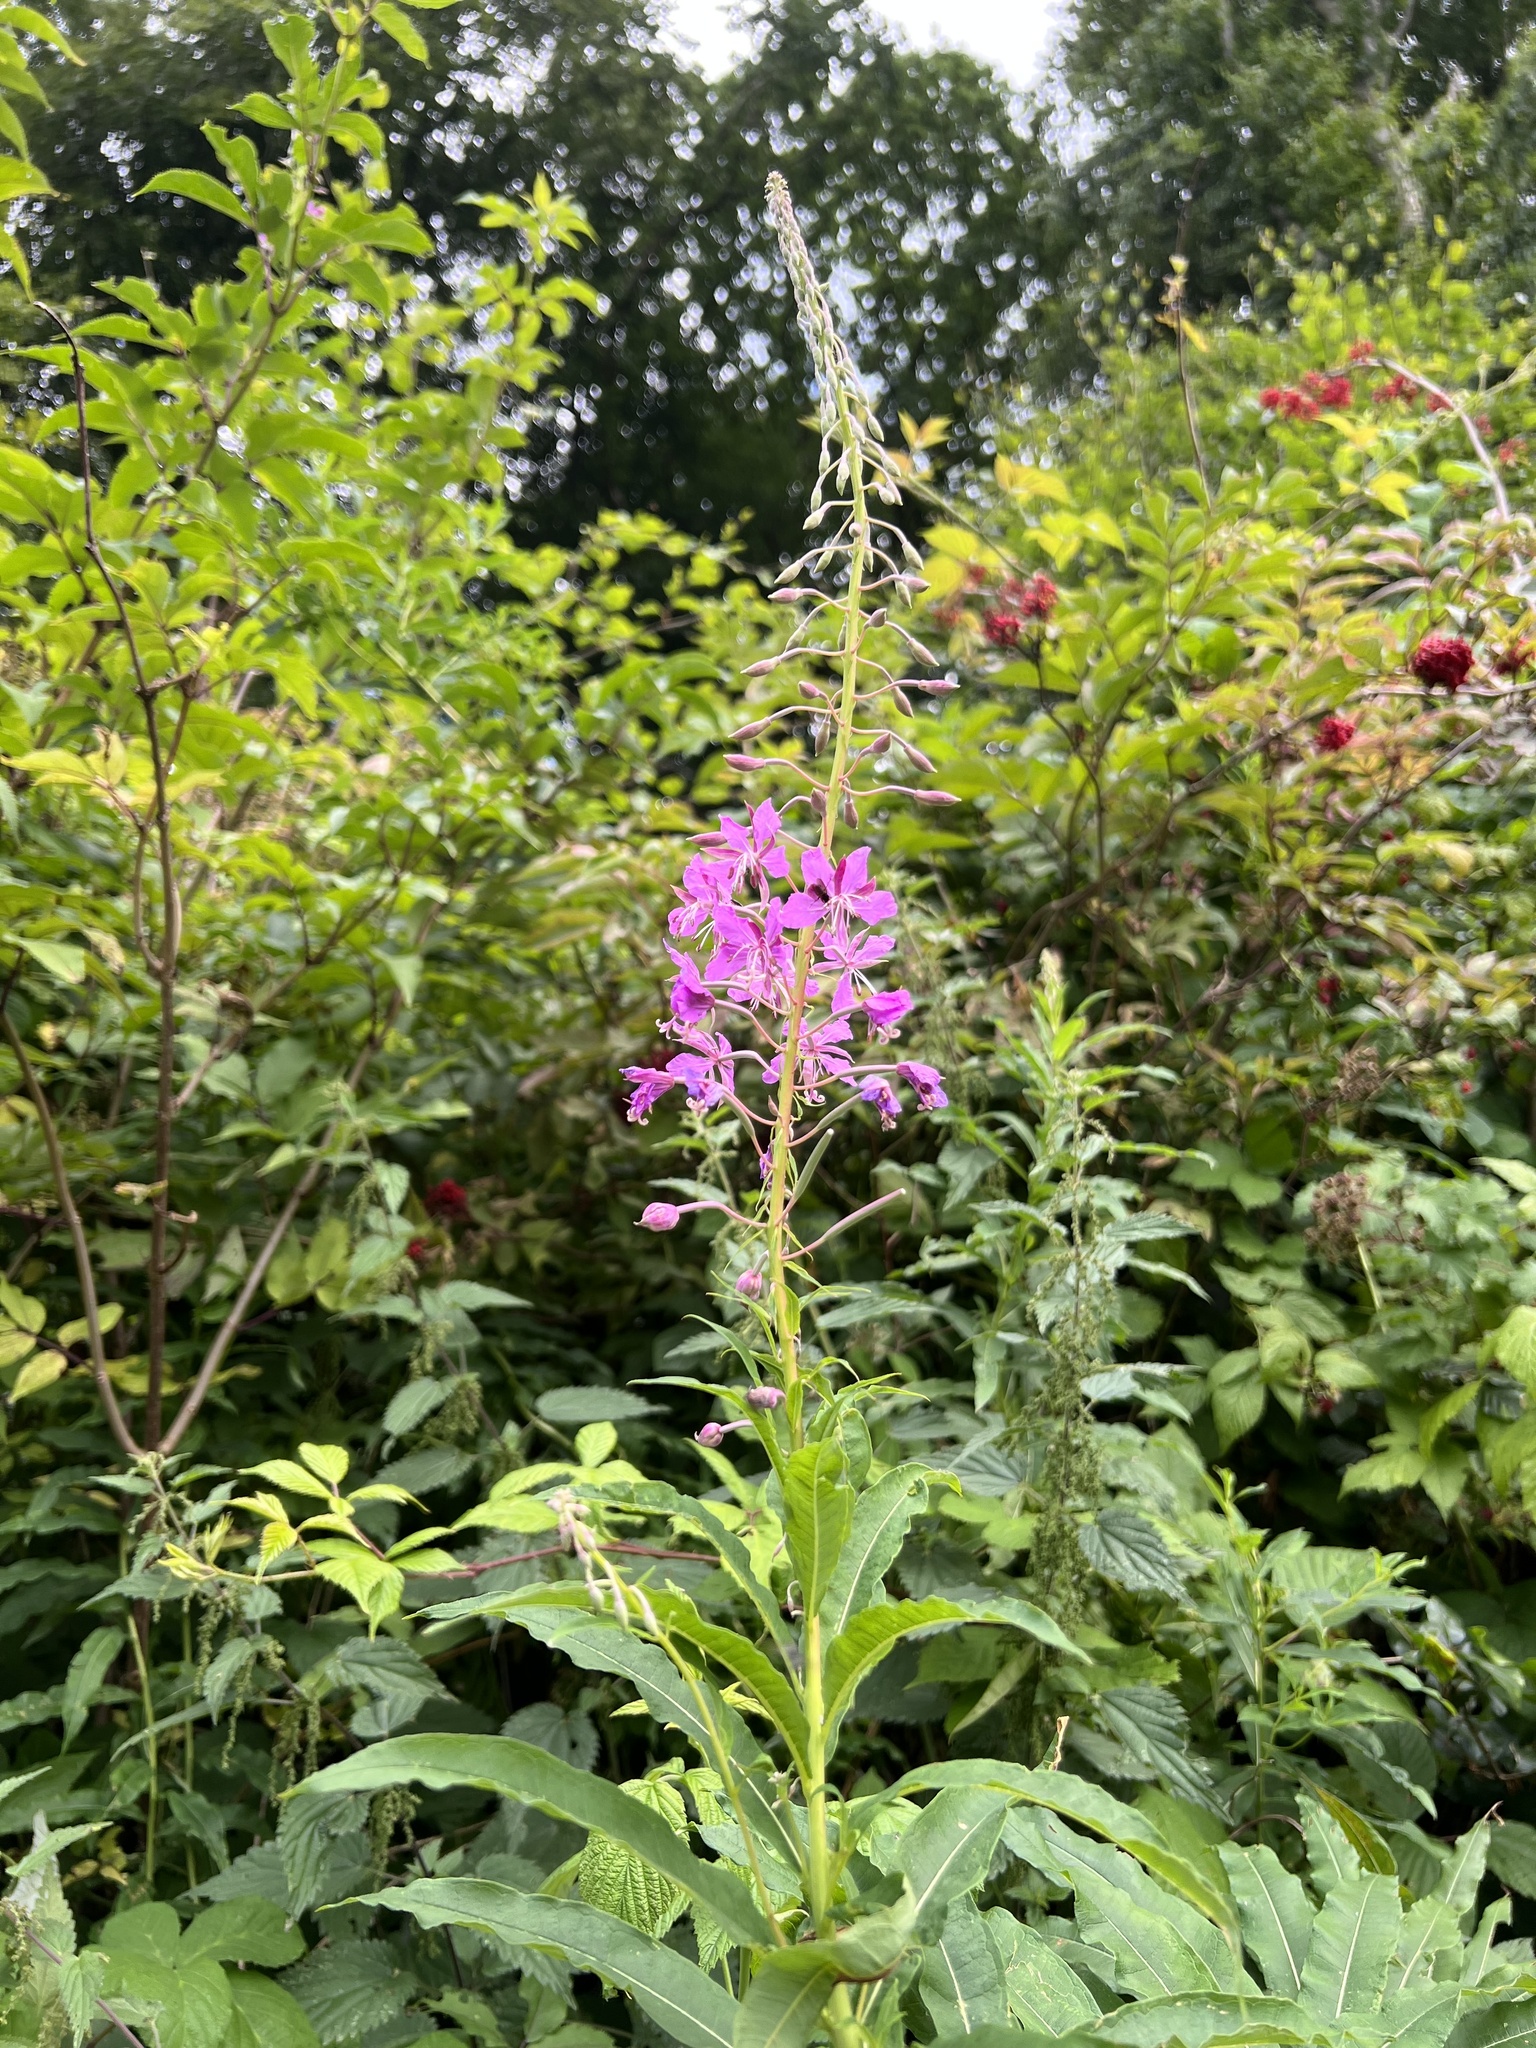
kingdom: Plantae
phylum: Tracheophyta
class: Magnoliopsida
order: Myrtales
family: Onagraceae
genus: Chamaenerion
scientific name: Chamaenerion angustifolium
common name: Fireweed
